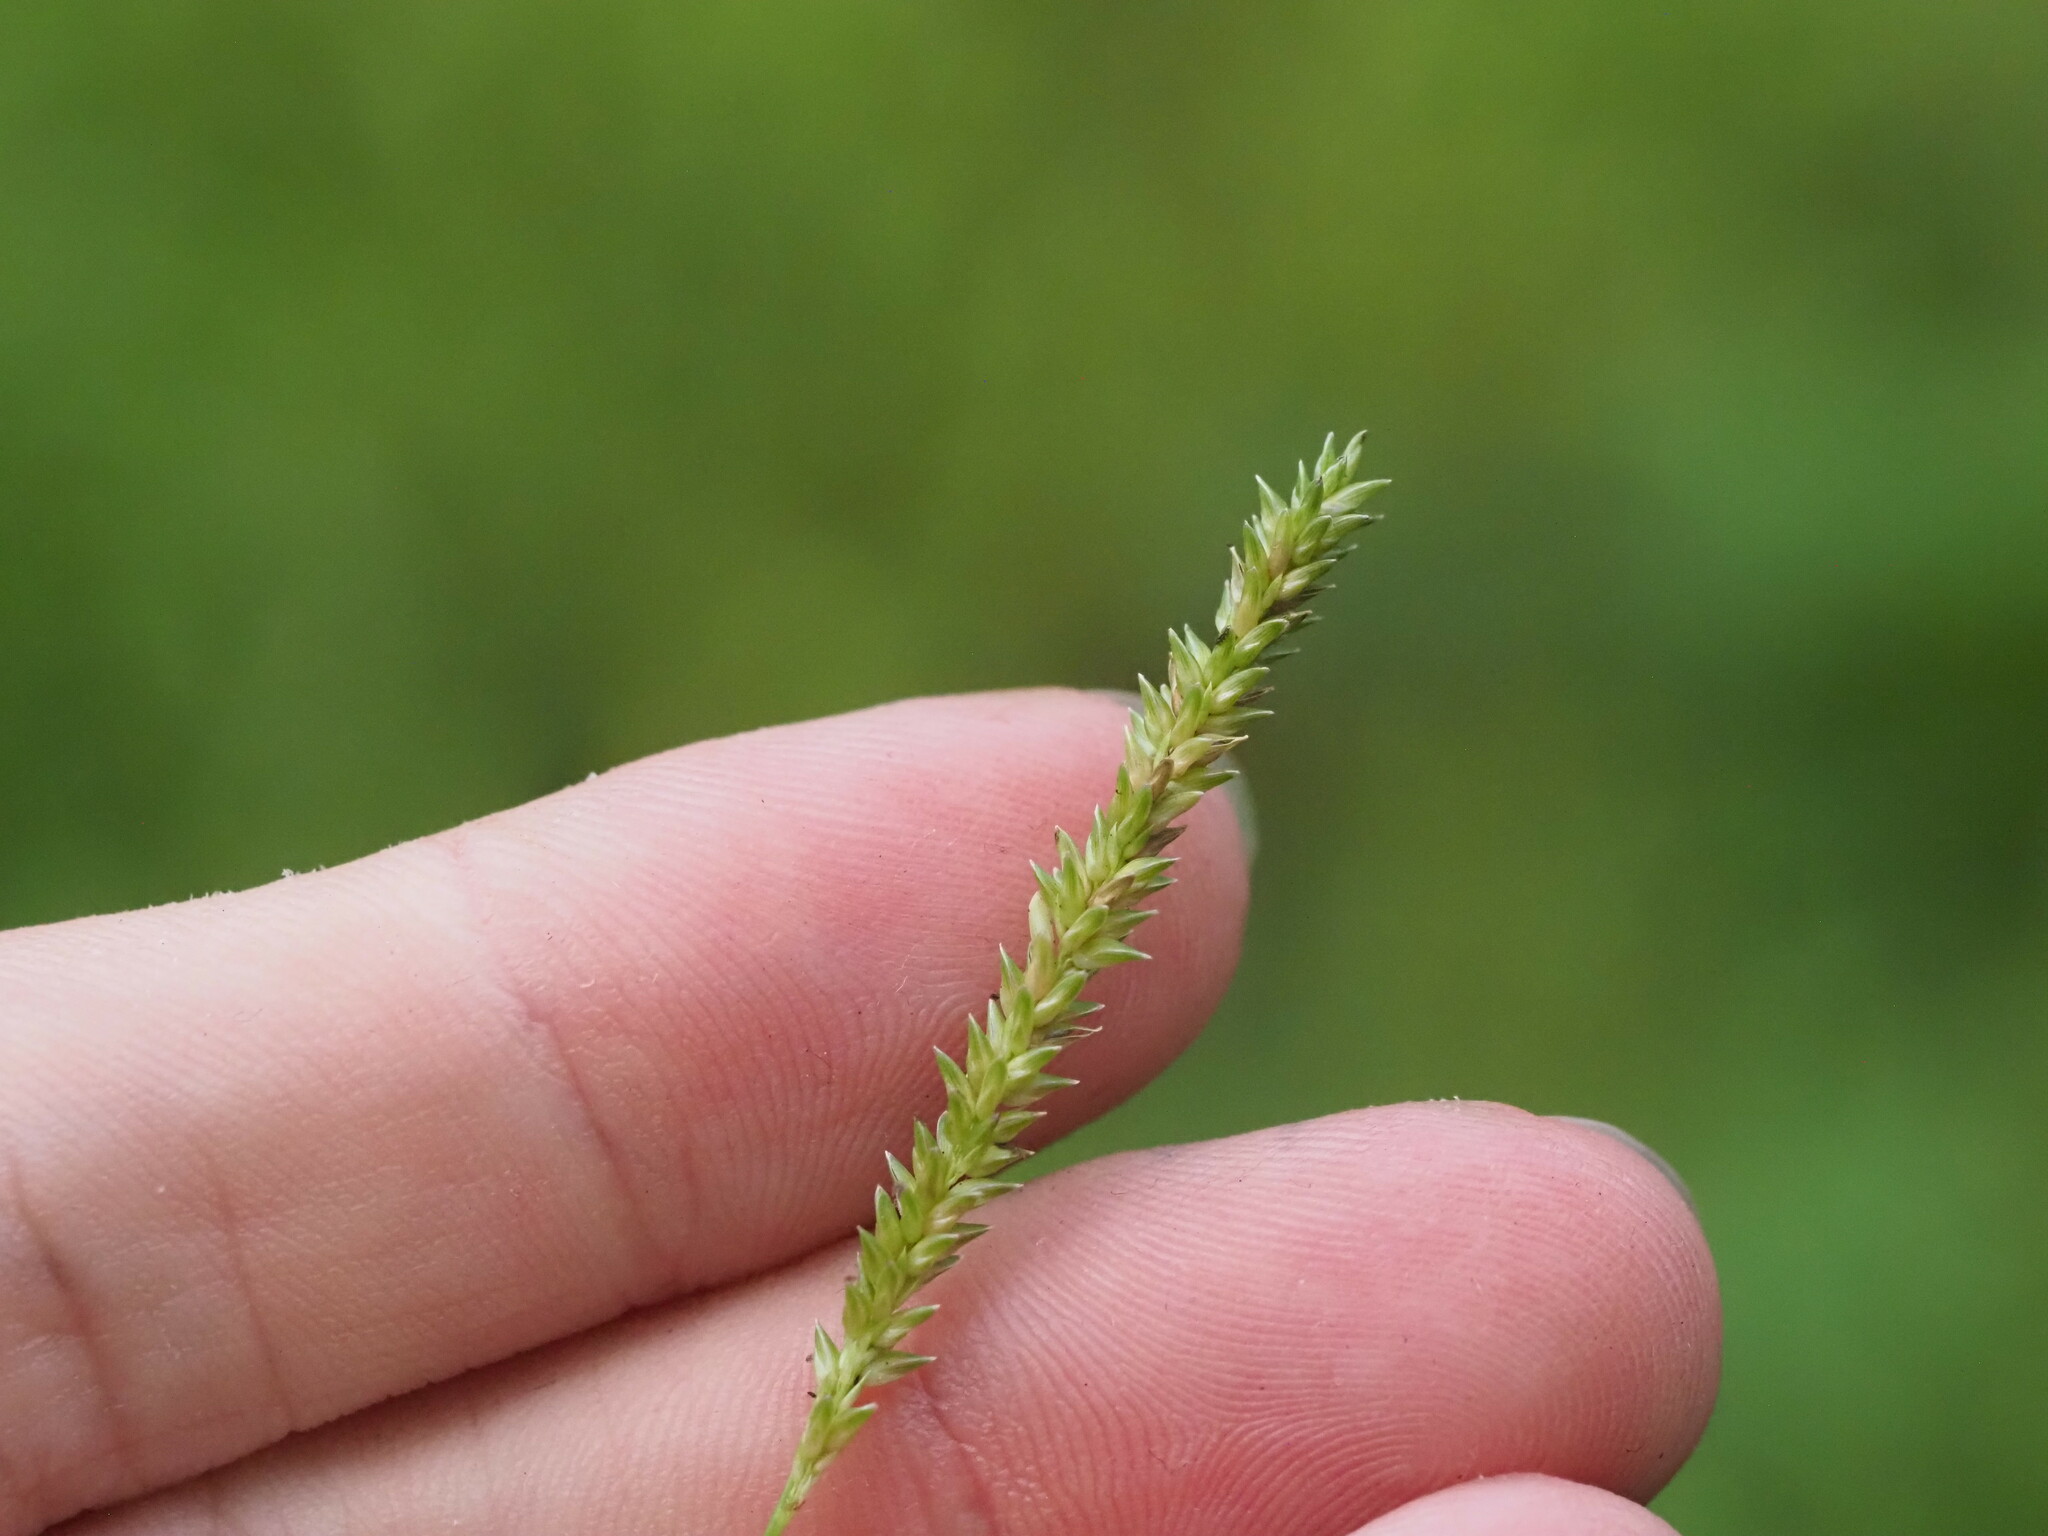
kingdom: Plantae
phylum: Tracheophyta
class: Liliopsida
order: Poales
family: Poaceae
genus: Sacciolepis
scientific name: Sacciolepis indica
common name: Glenwoodgrass
